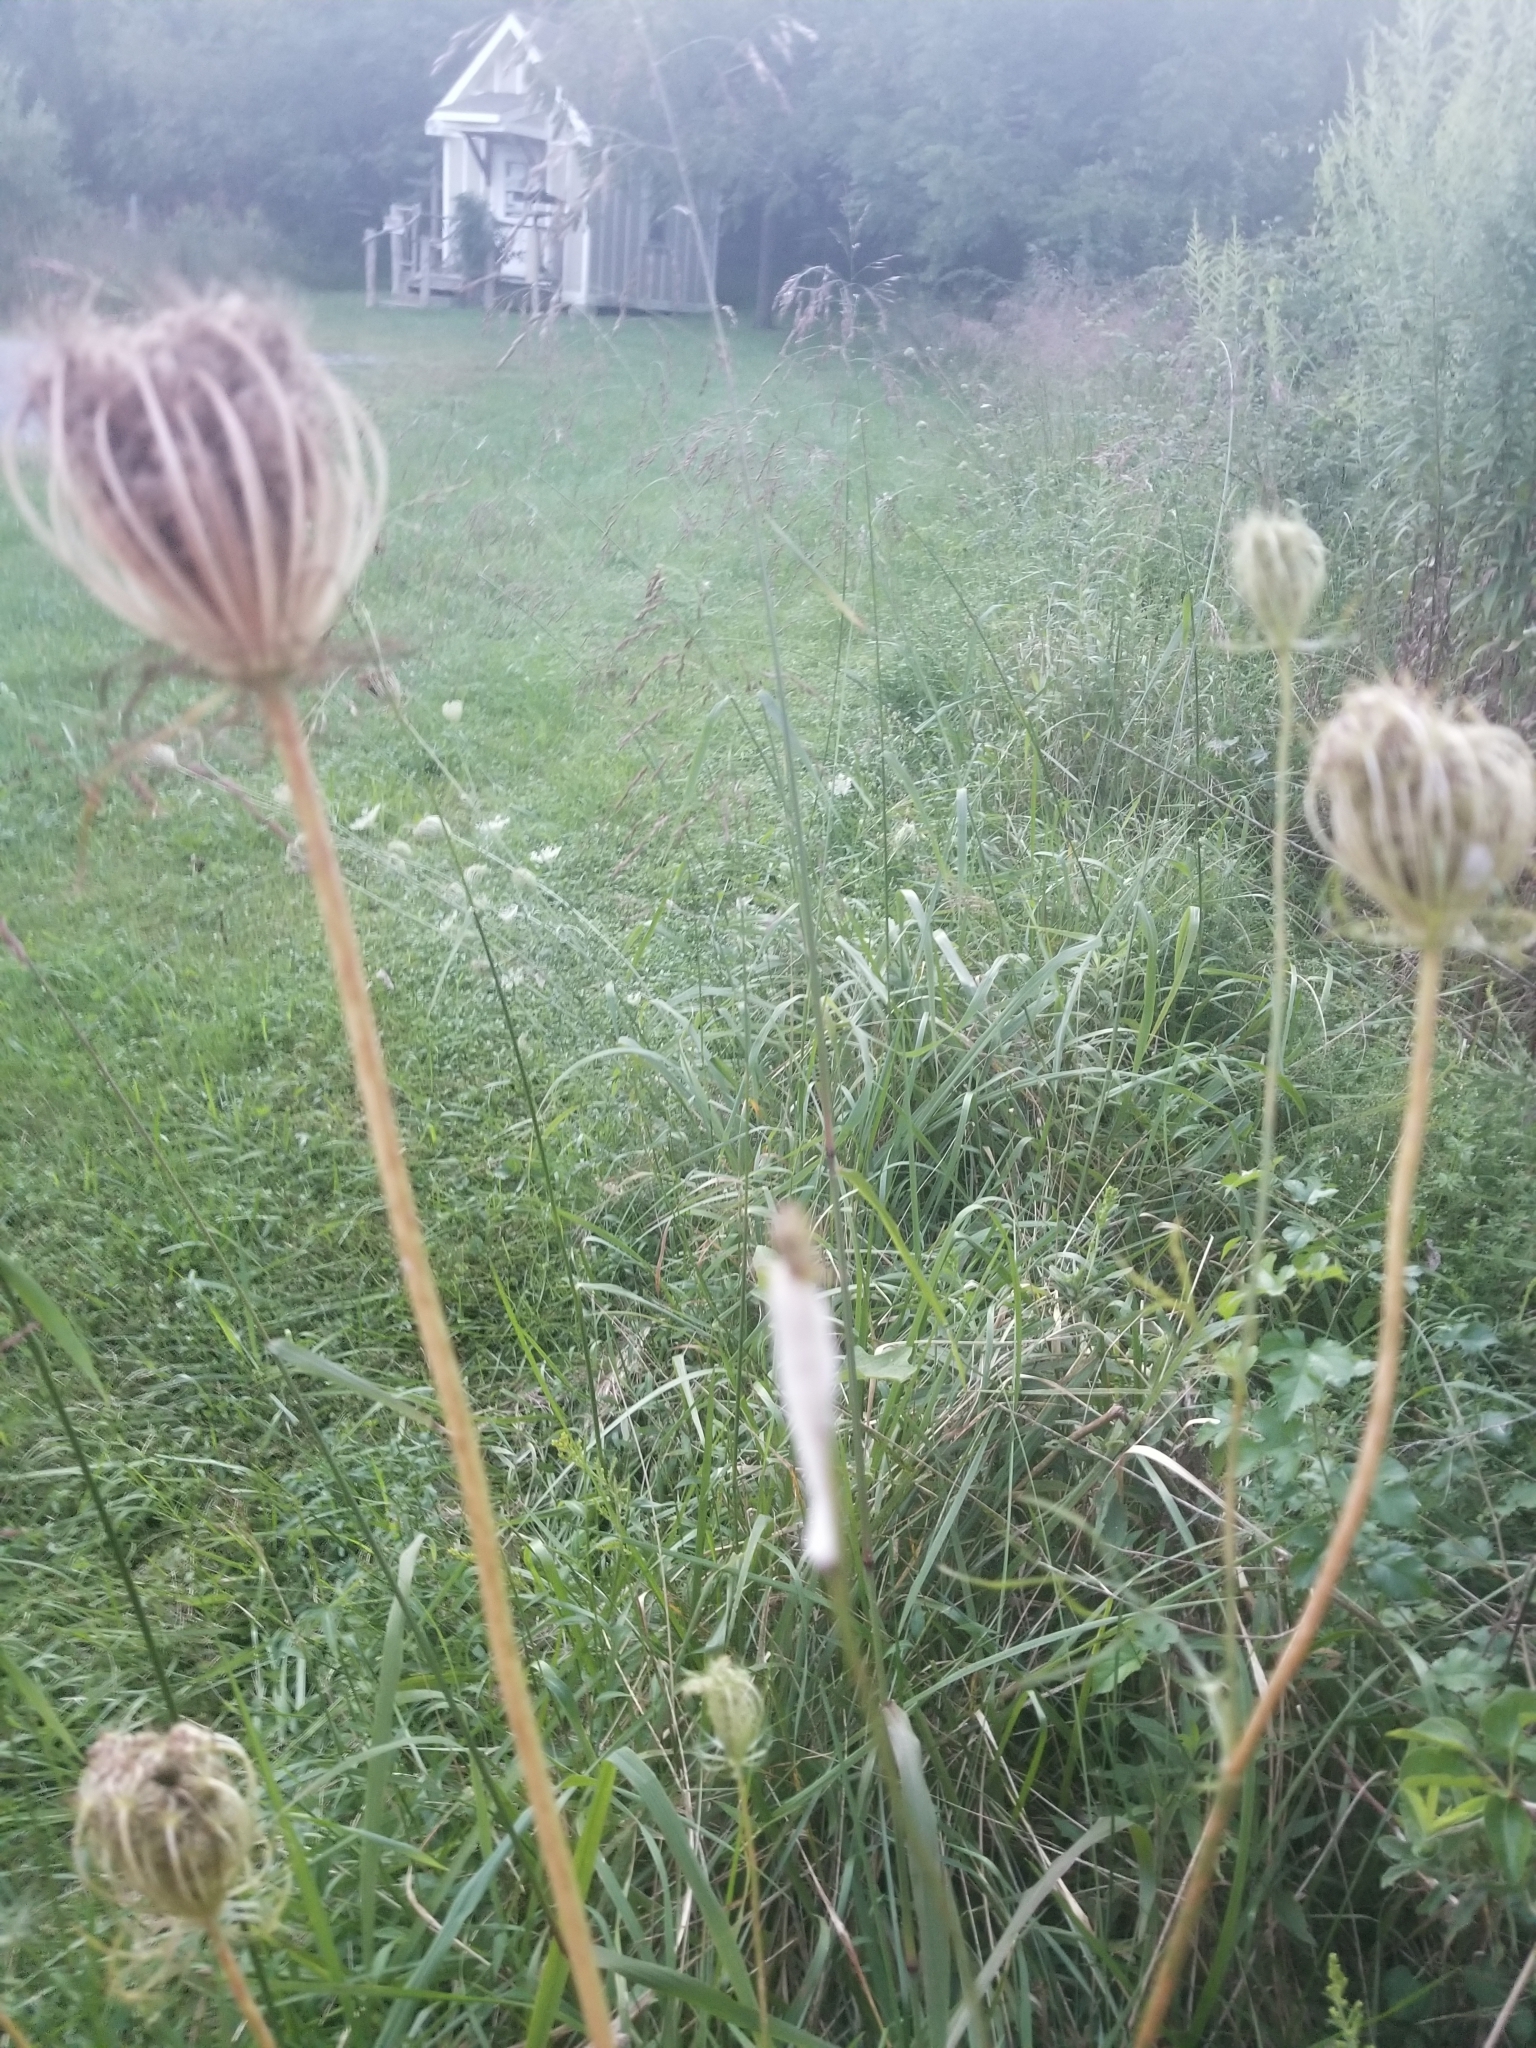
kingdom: Plantae
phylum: Tracheophyta
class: Magnoliopsida
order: Apiales
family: Apiaceae
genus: Daucus
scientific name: Daucus carota
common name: Wild carrot
